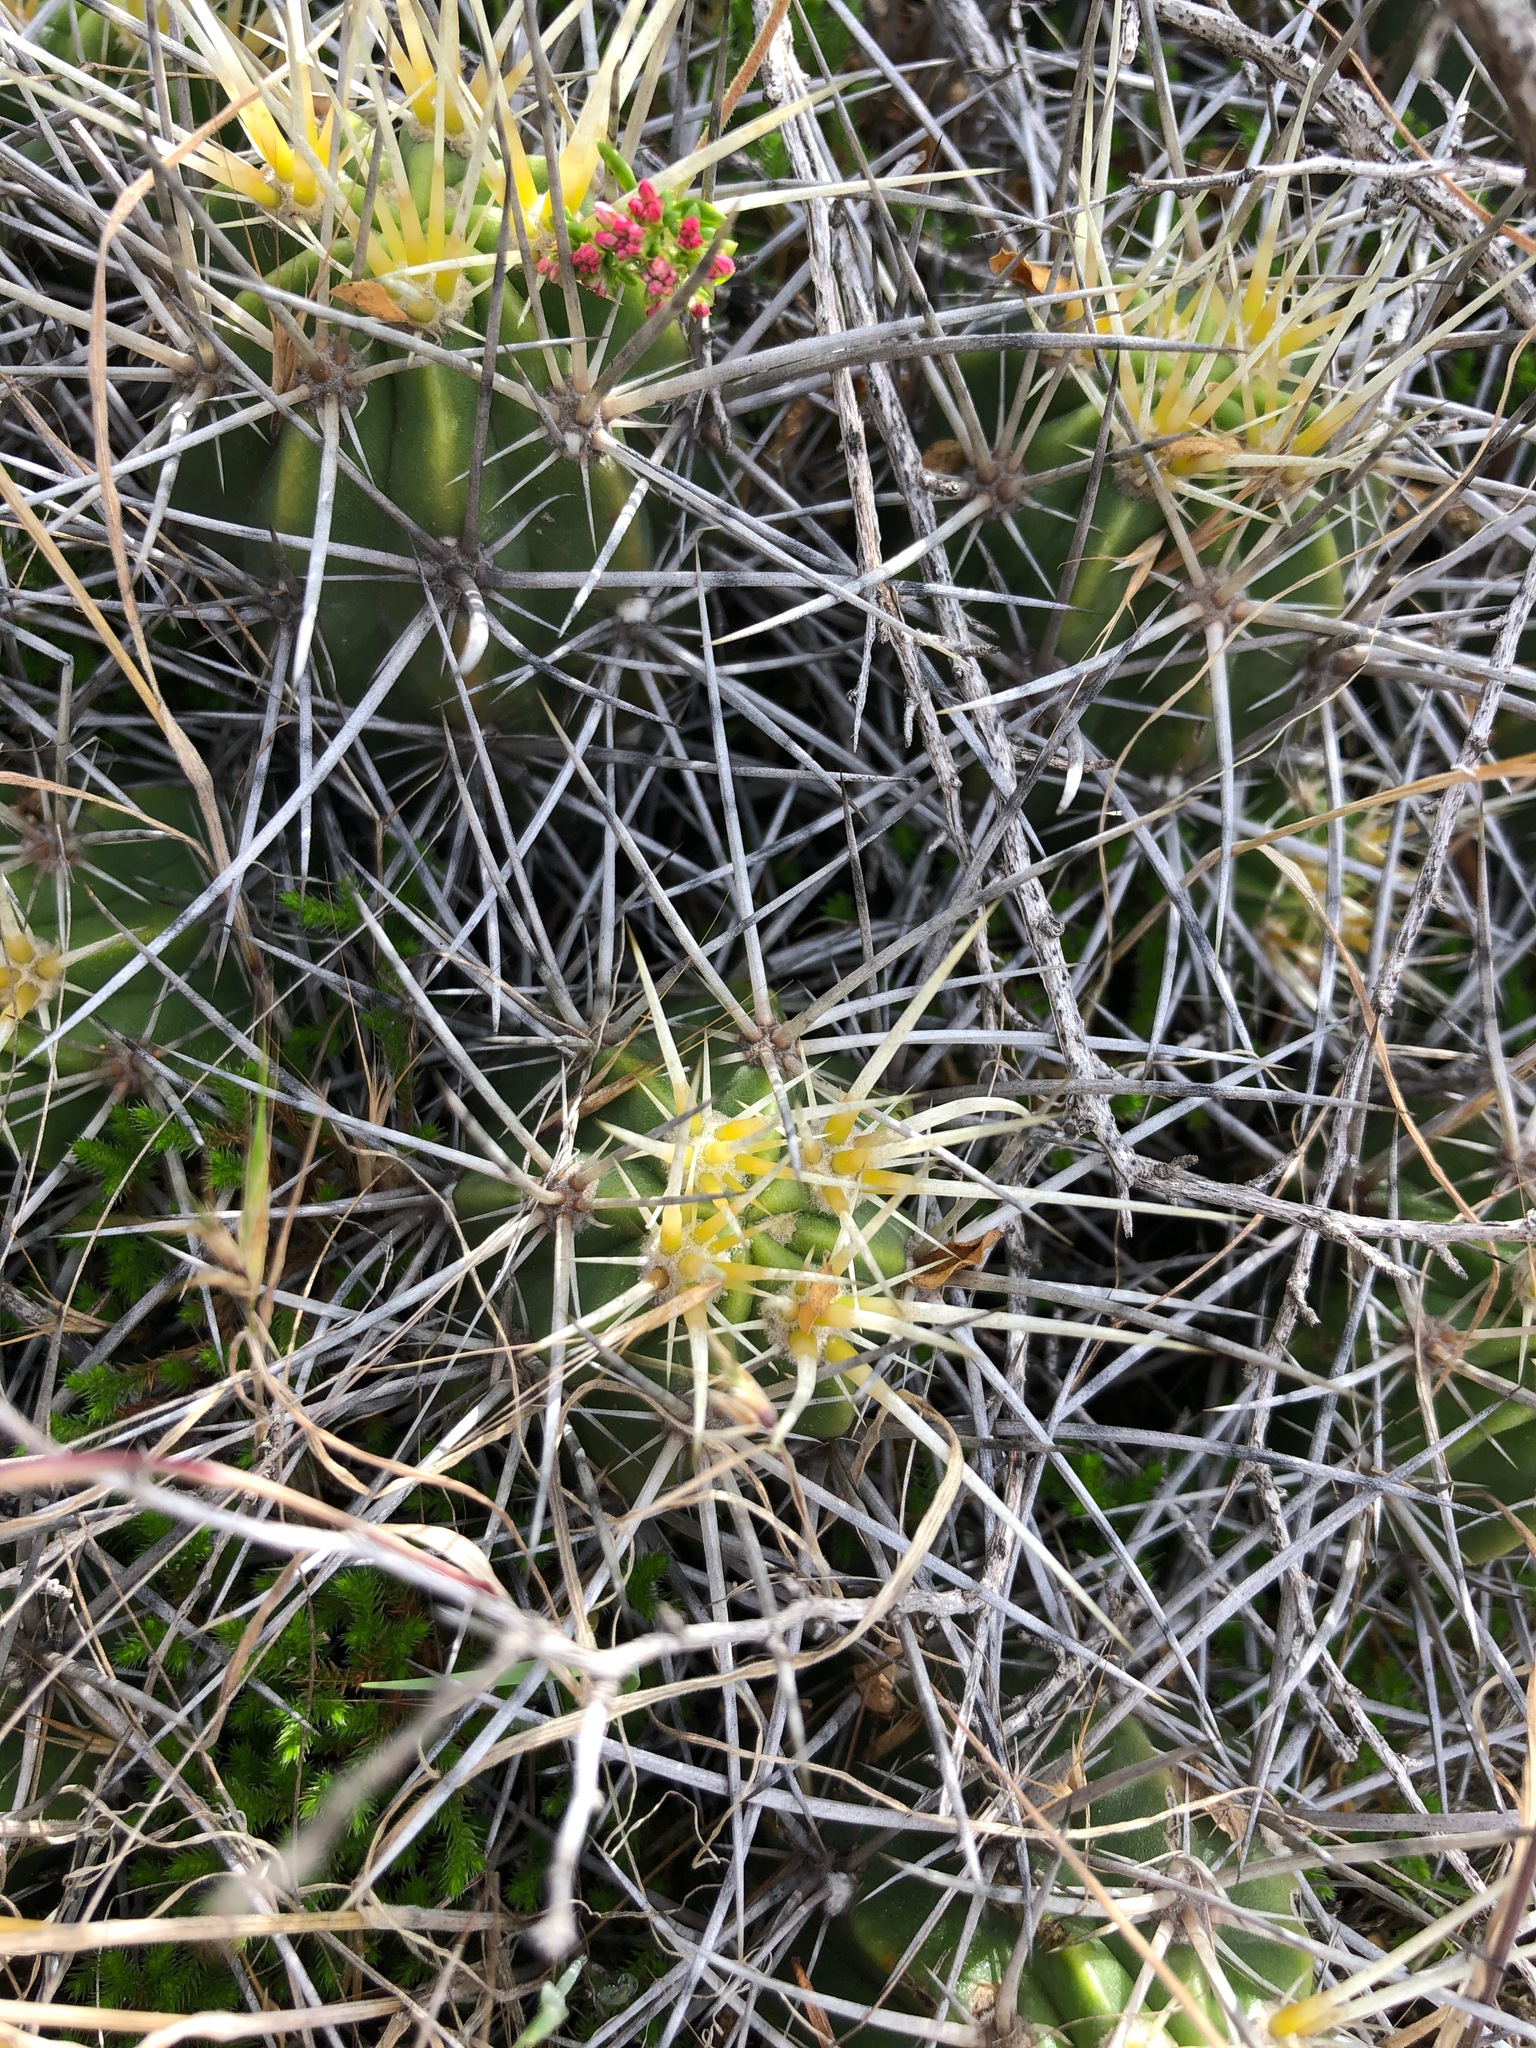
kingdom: Plantae
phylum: Tracheophyta
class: Magnoliopsida
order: Caryophyllales
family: Cactaceae
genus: Echinocereus
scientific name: Echinocereus maritimus
